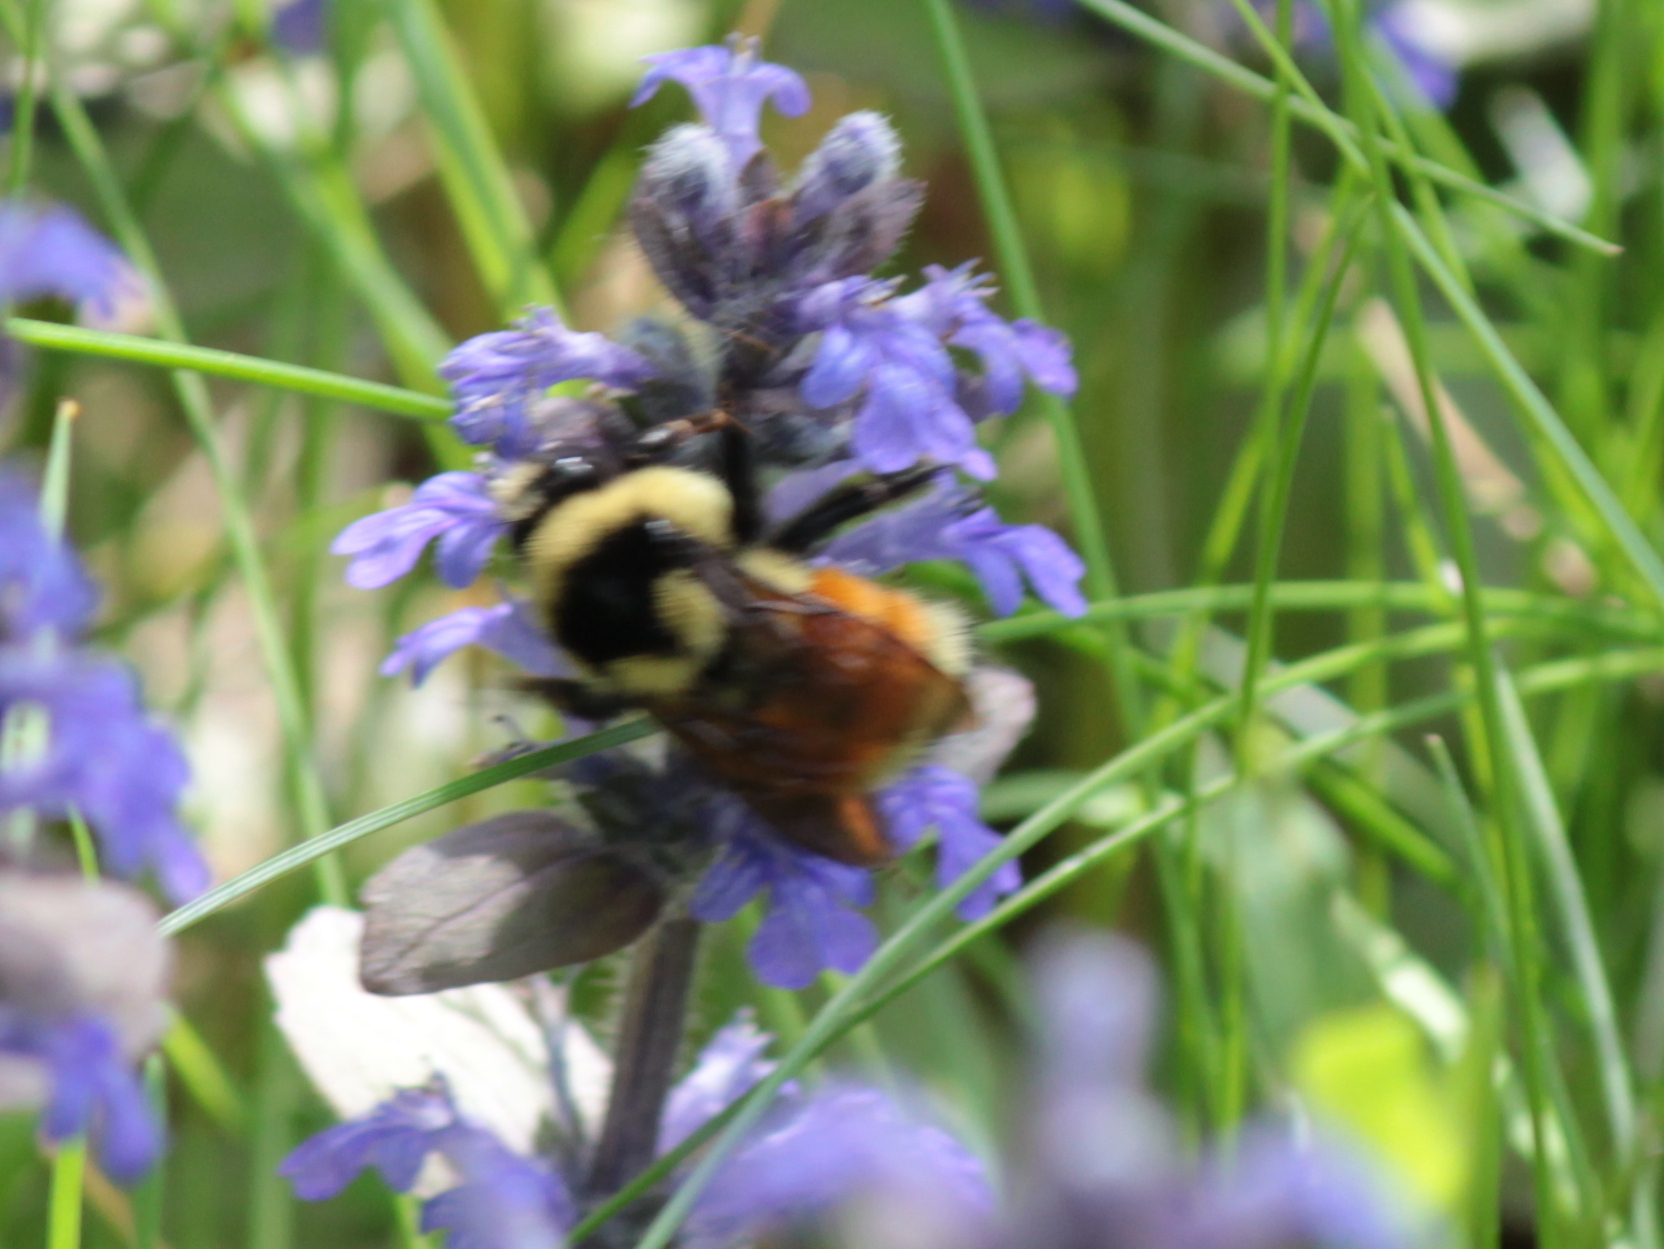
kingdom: Animalia
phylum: Arthropoda
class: Insecta
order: Hymenoptera
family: Apidae
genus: Bombus
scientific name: Bombus ternarius
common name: Tri-colored bumble bee
